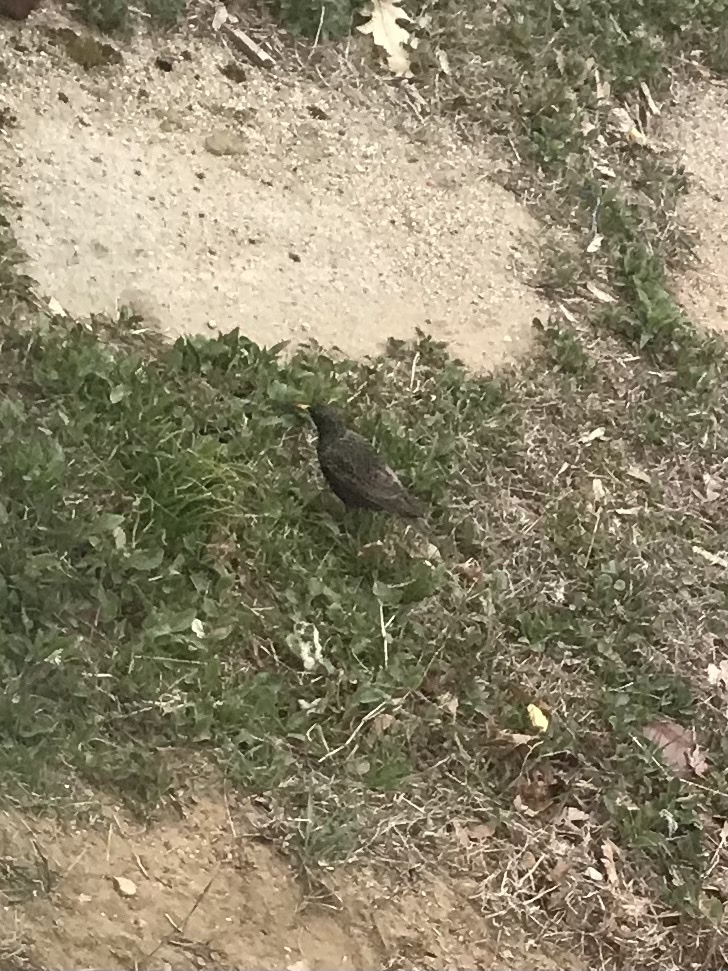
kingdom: Animalia
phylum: Chordata
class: Aves
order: Passeriformes
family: Sturnidae
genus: Sturnus
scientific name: Sturnus vulgaris
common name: Common starling
